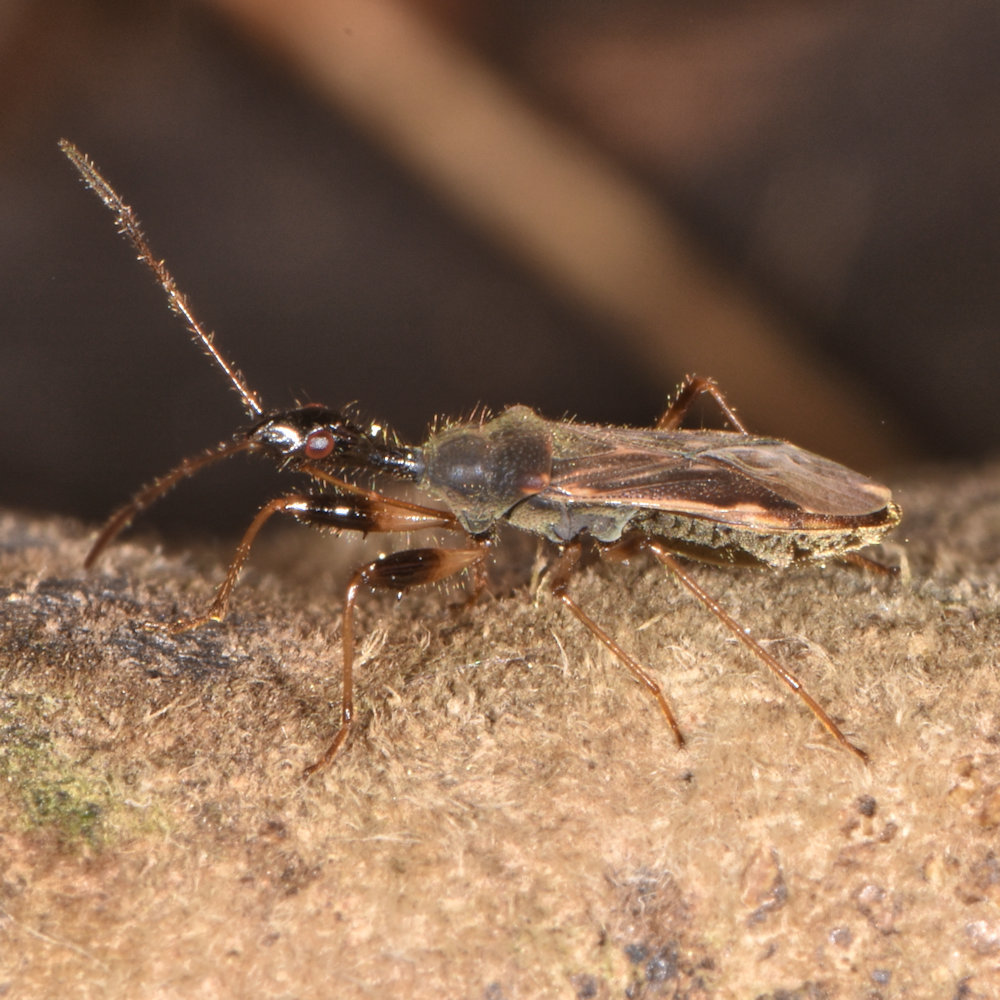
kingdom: Animalia
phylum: Arthropoda
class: Insecta
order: Hemiptera
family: Rhyparochromidae
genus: Myodocha
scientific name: Myodocha serripes
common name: Long-necked seed bug
